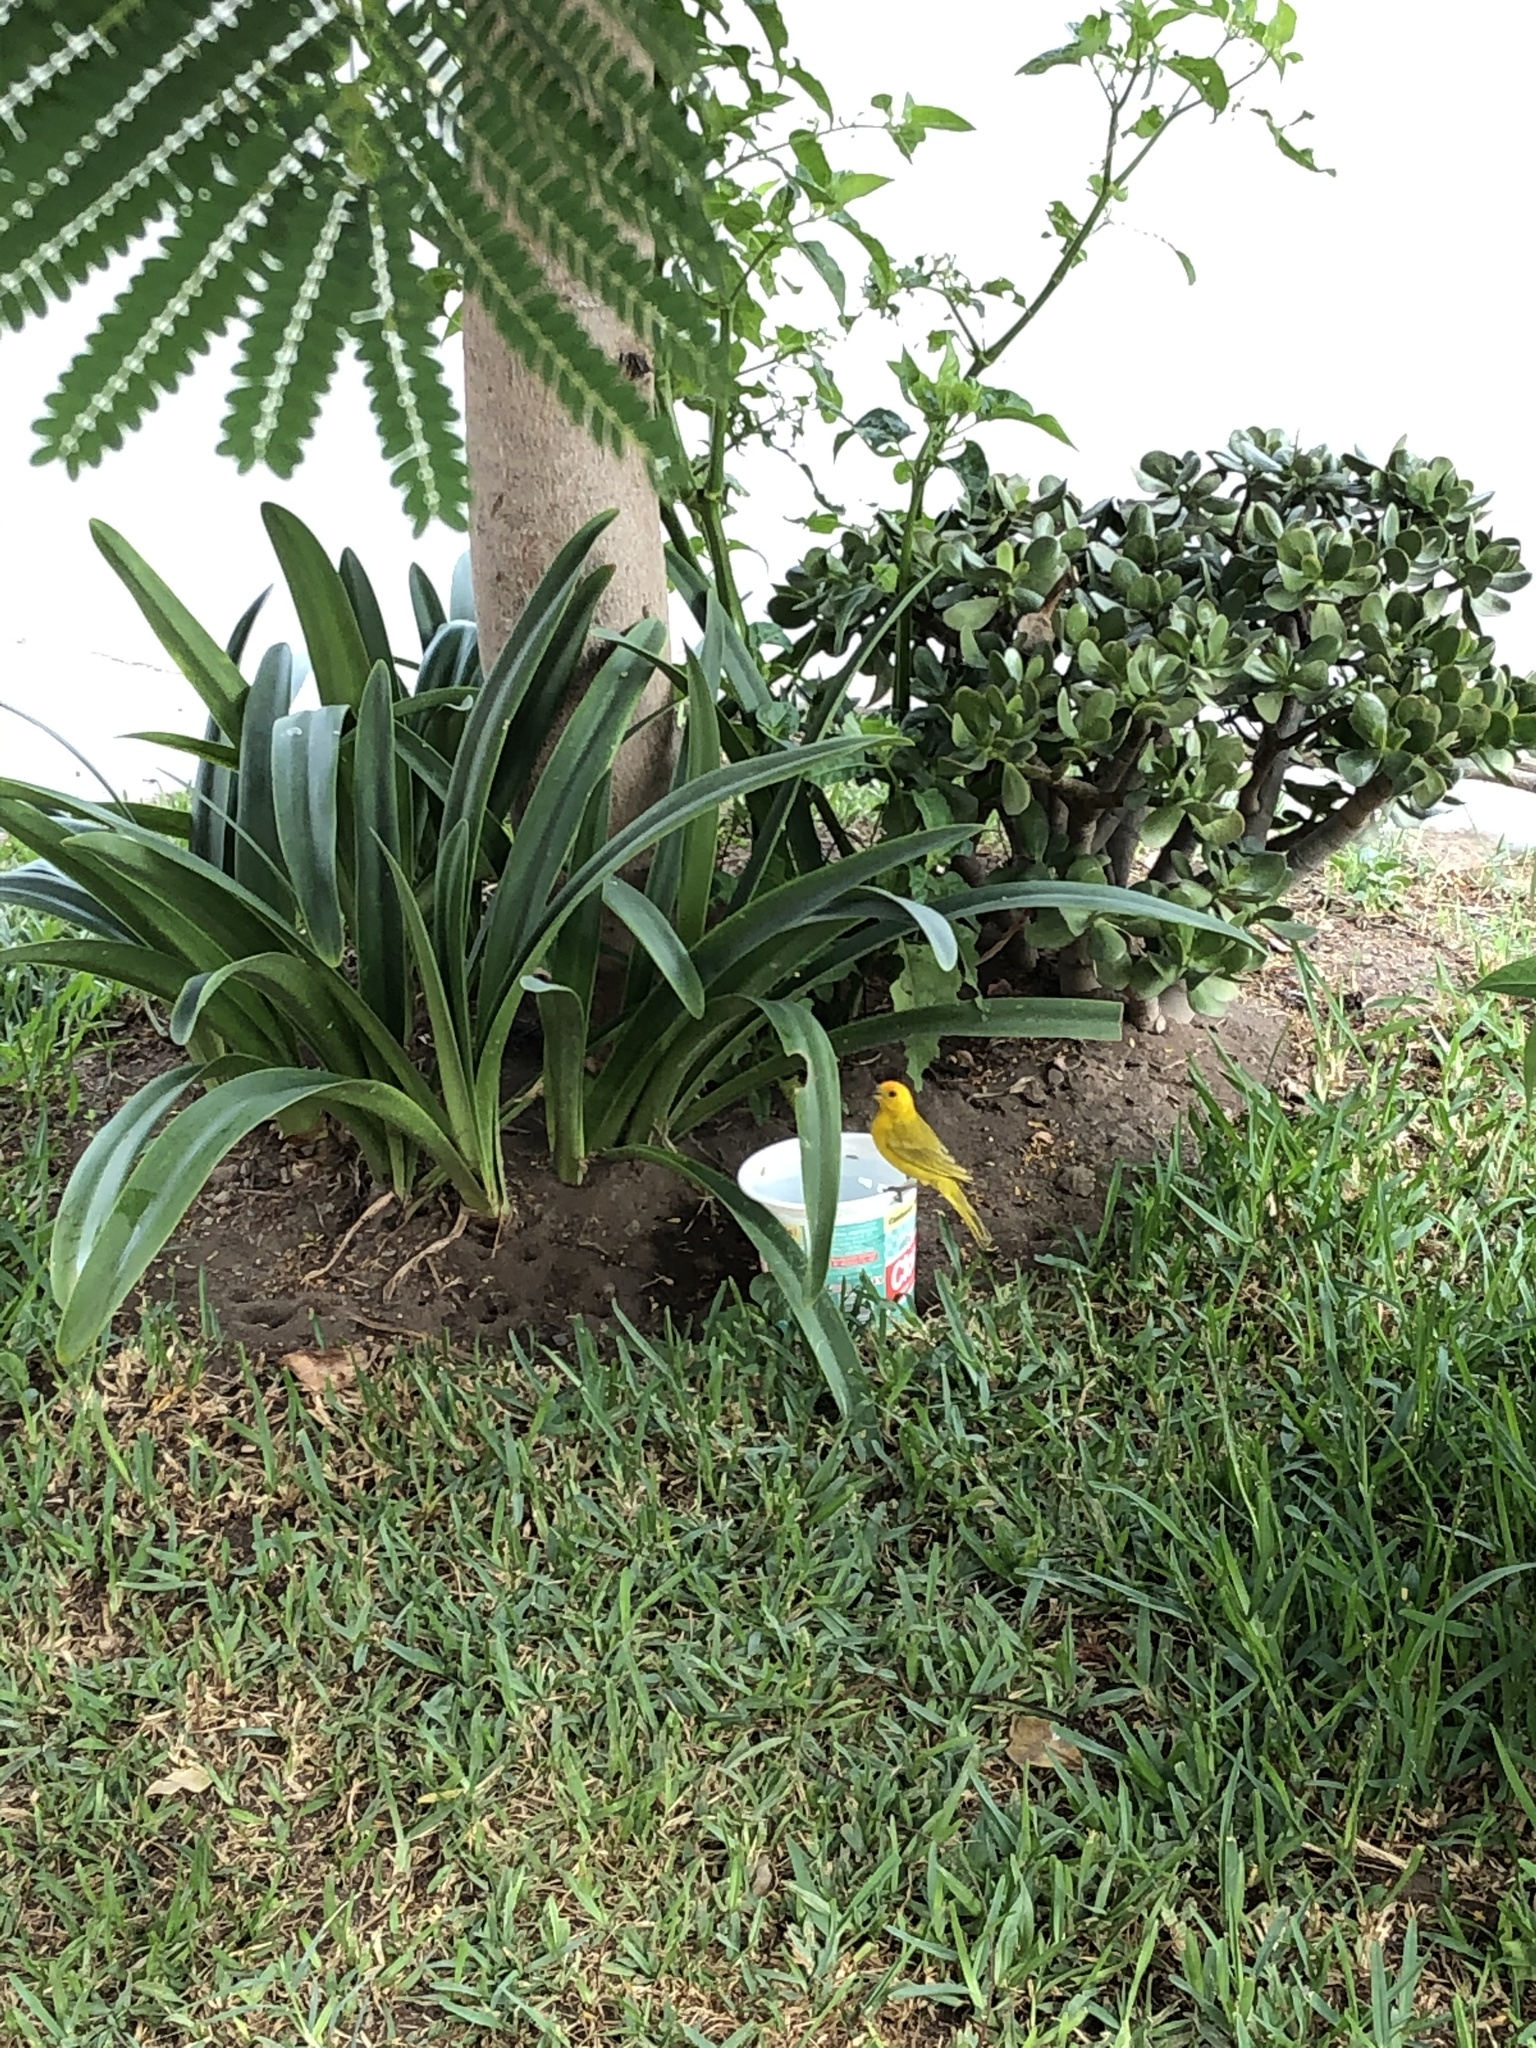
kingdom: Animalia
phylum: Chordata
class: Aves
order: Passeriformes
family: Thraupidae
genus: Sicalis
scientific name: Sicalis flaveola
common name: Saffron finch
